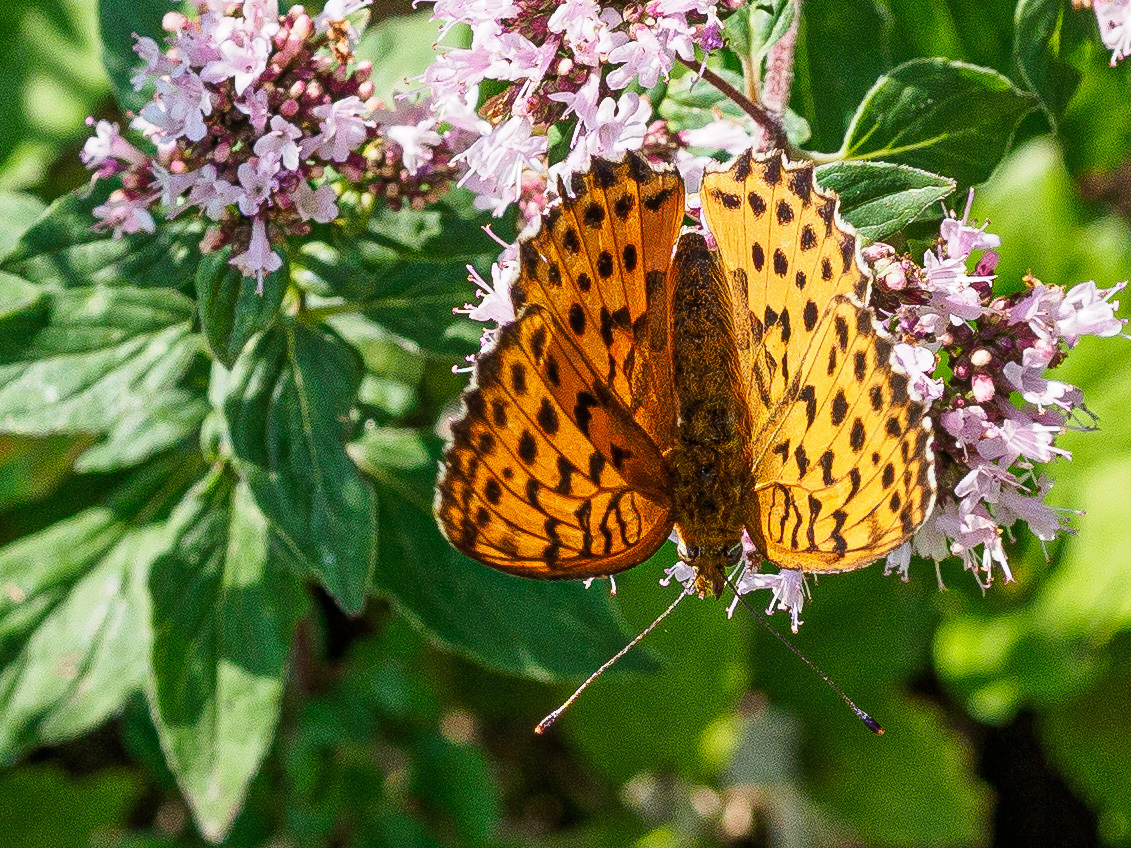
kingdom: Animalia
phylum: Arthropoda
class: Insecta
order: Lepidoptera
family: Nymphalidae
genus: Brenthis
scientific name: Brenthis daphne
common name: Marbled fritillary
